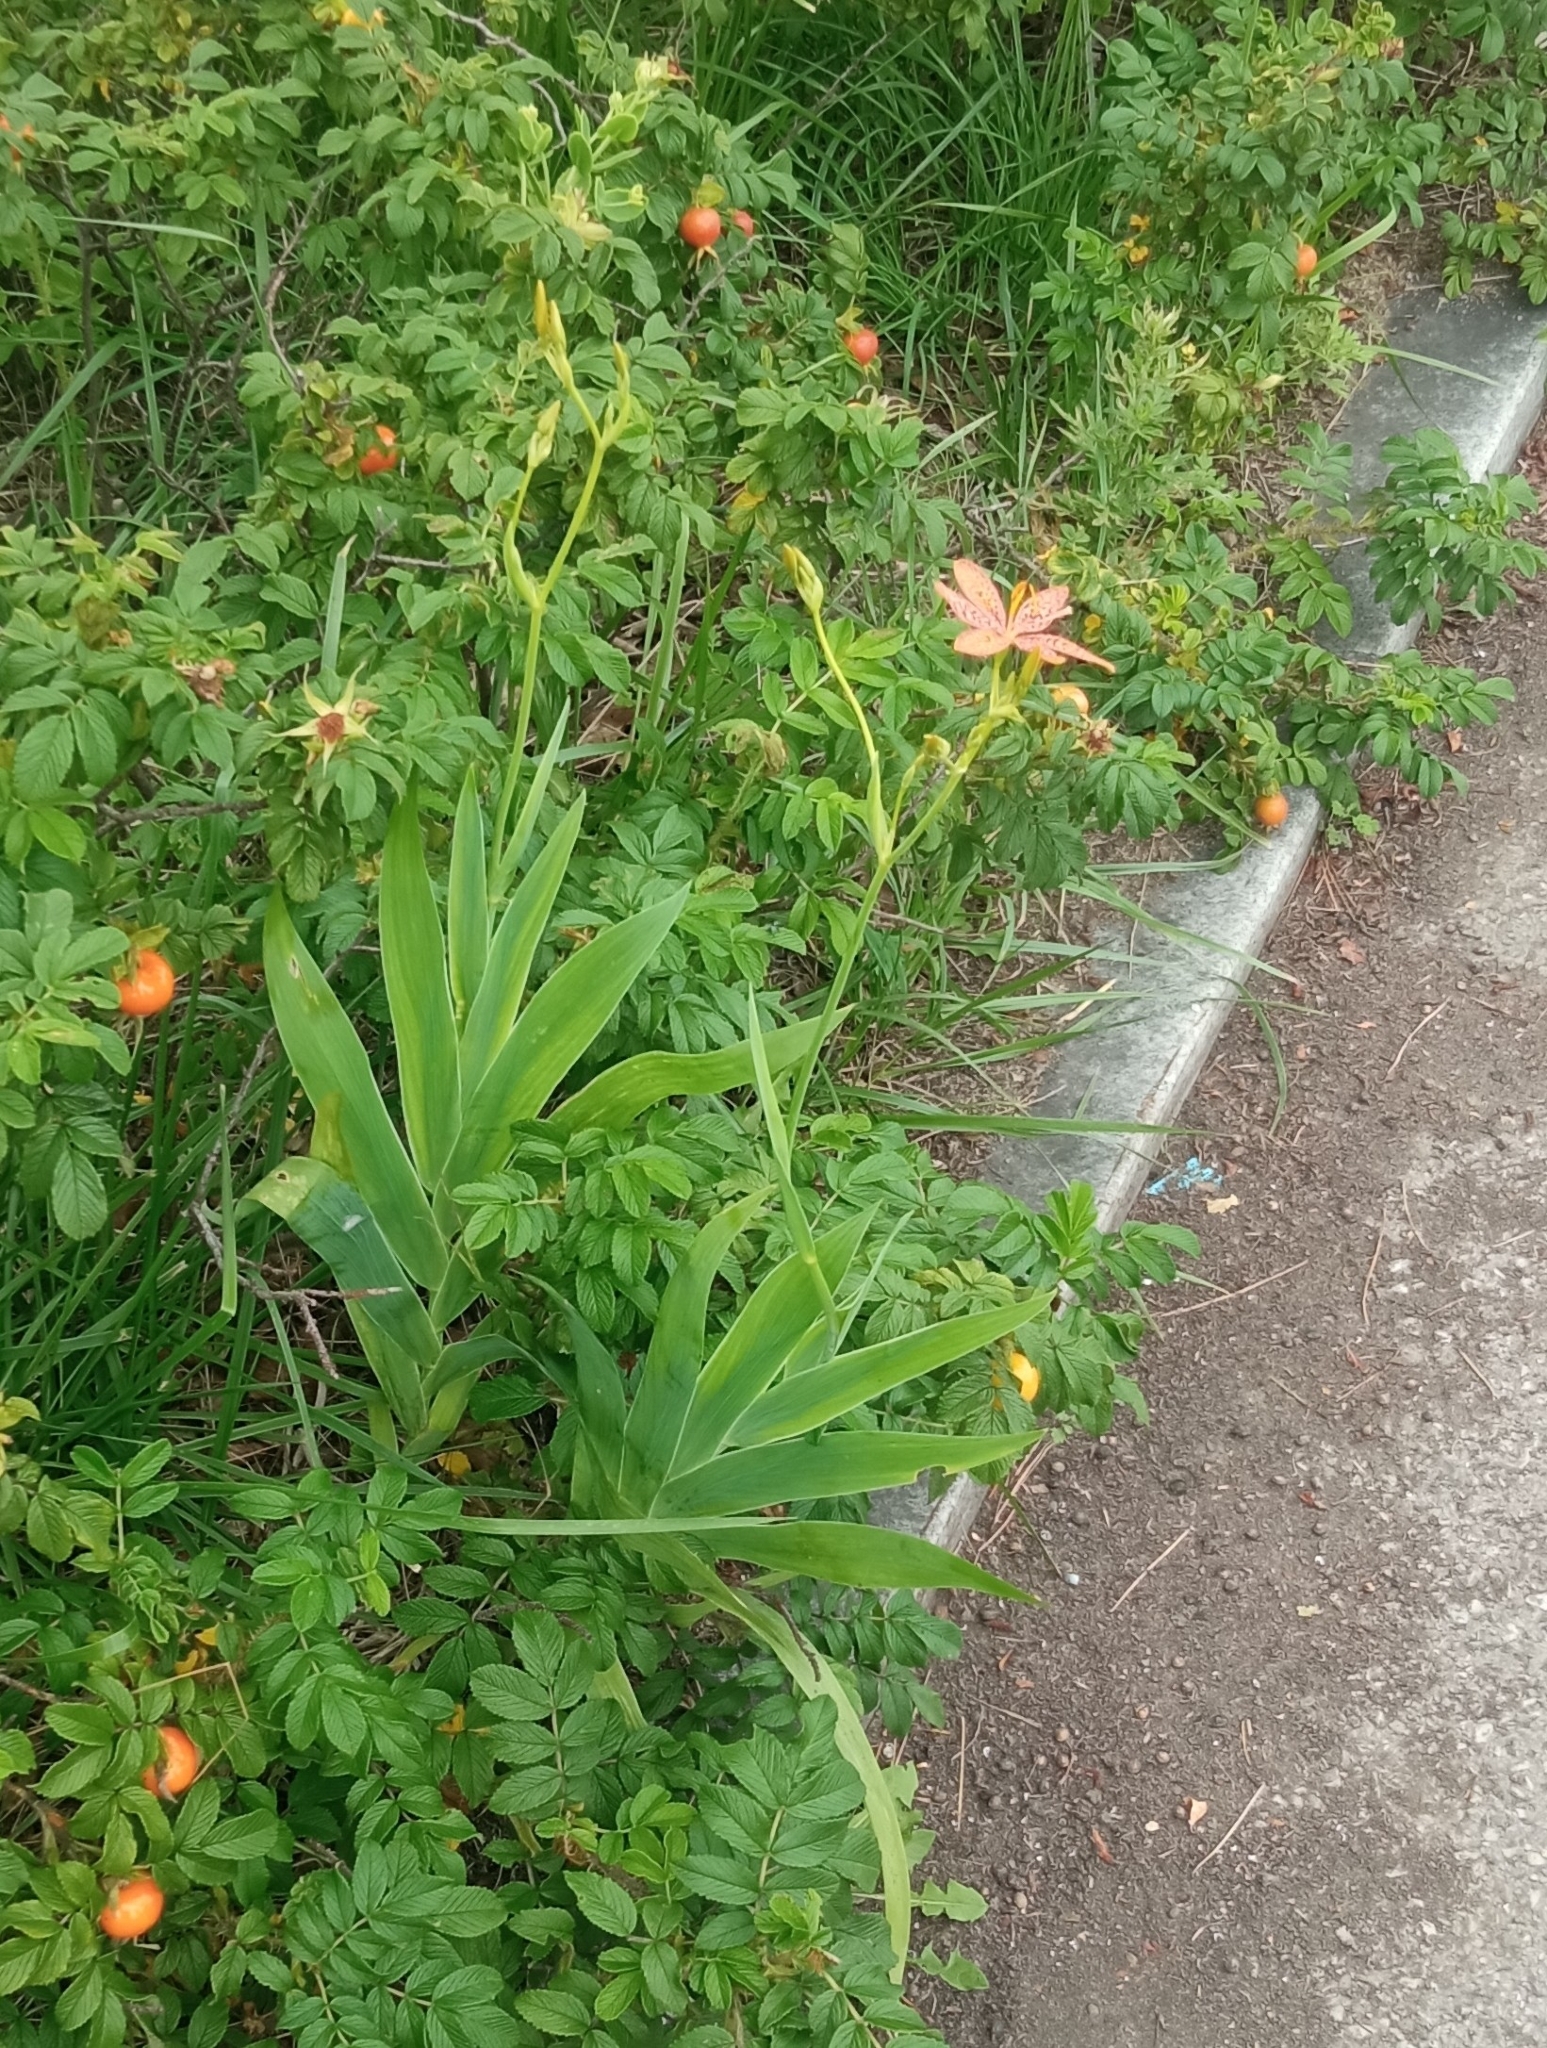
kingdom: Plantae
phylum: Tracheophyta
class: Liliopsida
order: Asparagales
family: Iridaceae
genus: Iris
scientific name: Iris domestica
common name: Belamcanda
